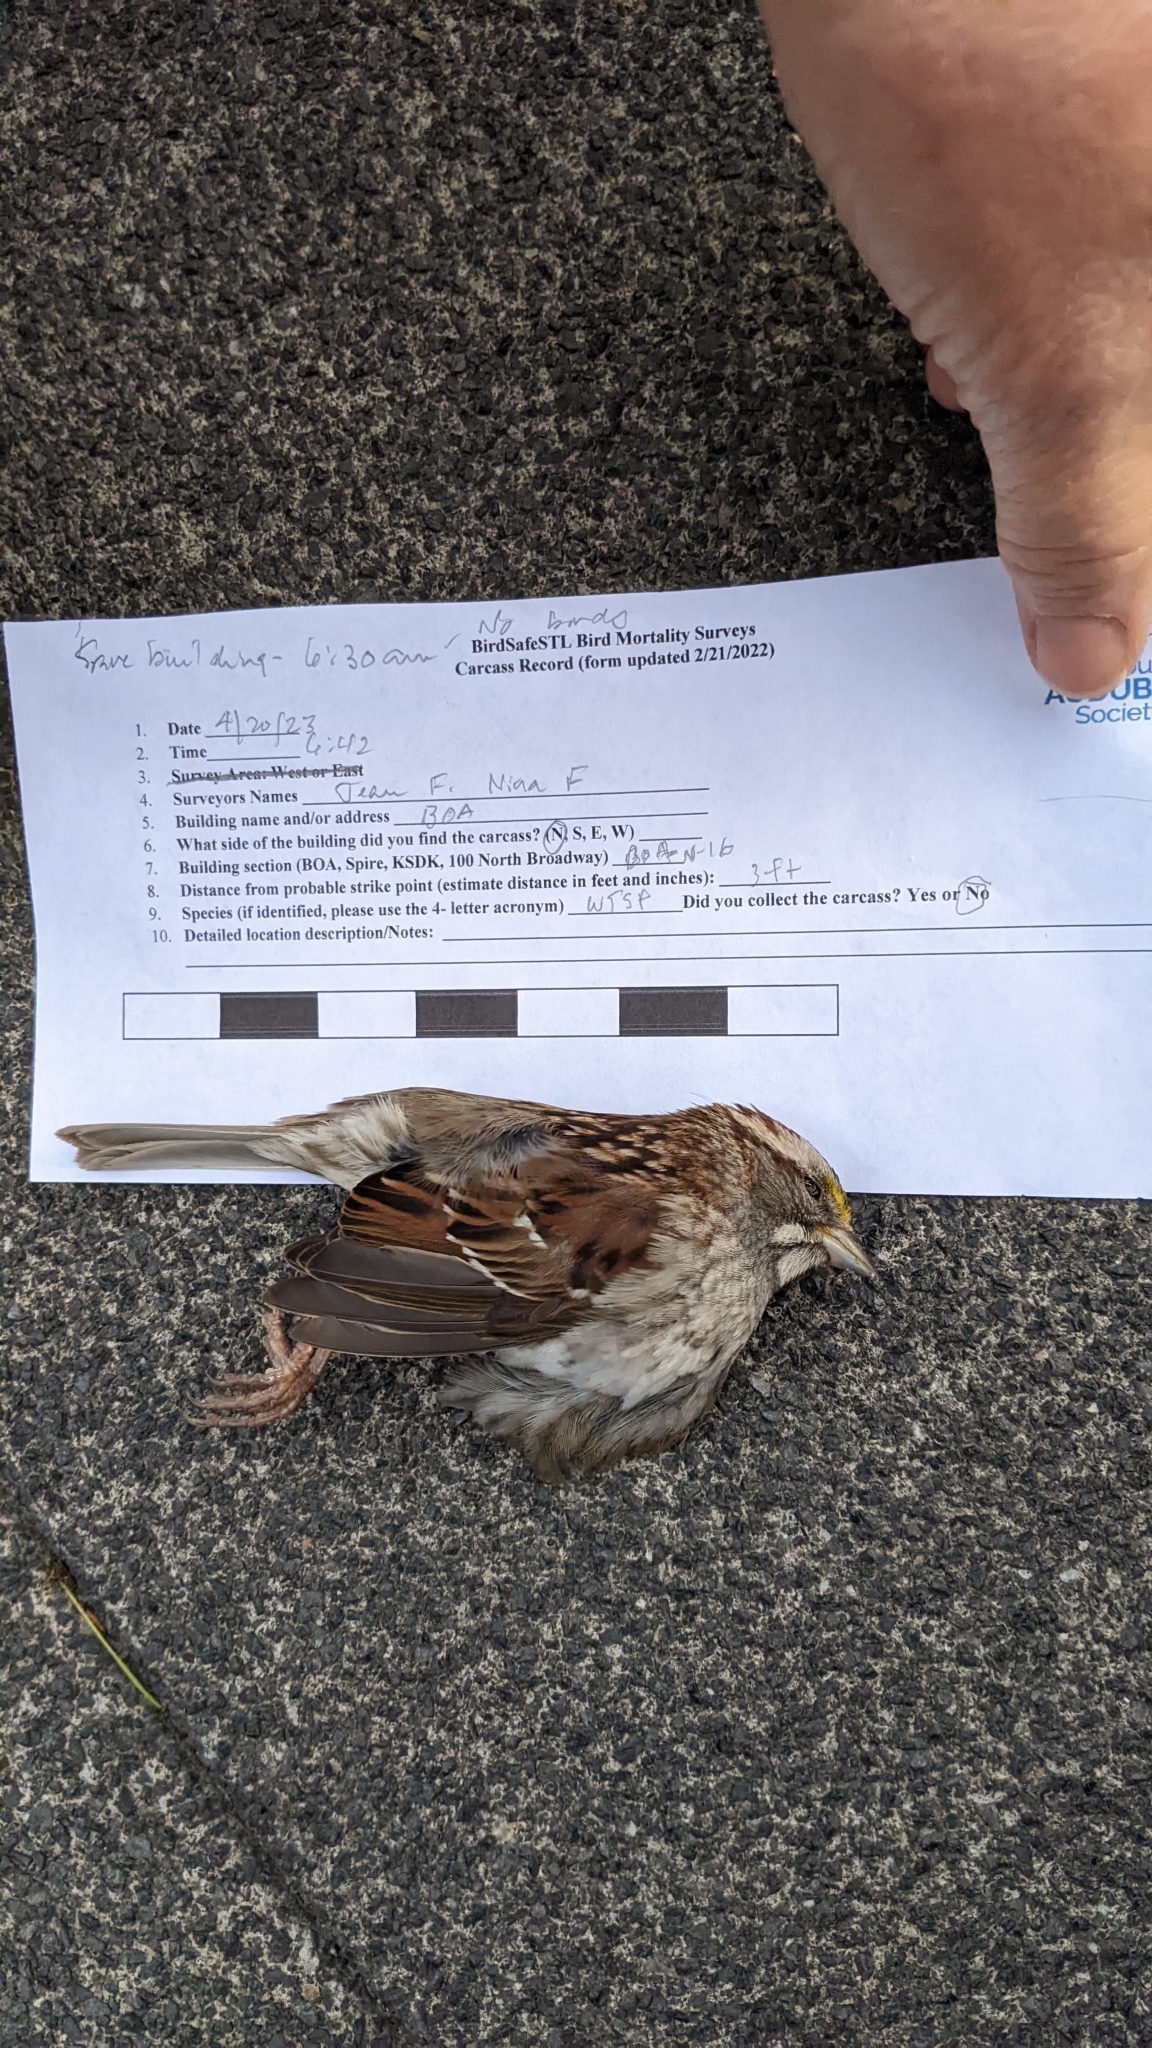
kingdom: Animalia
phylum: Chordata
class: Aves
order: Passeriformes
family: Passerellidae
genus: Zonotrichia
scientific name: Zonotrichia albicollis
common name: White-throated sparrow
